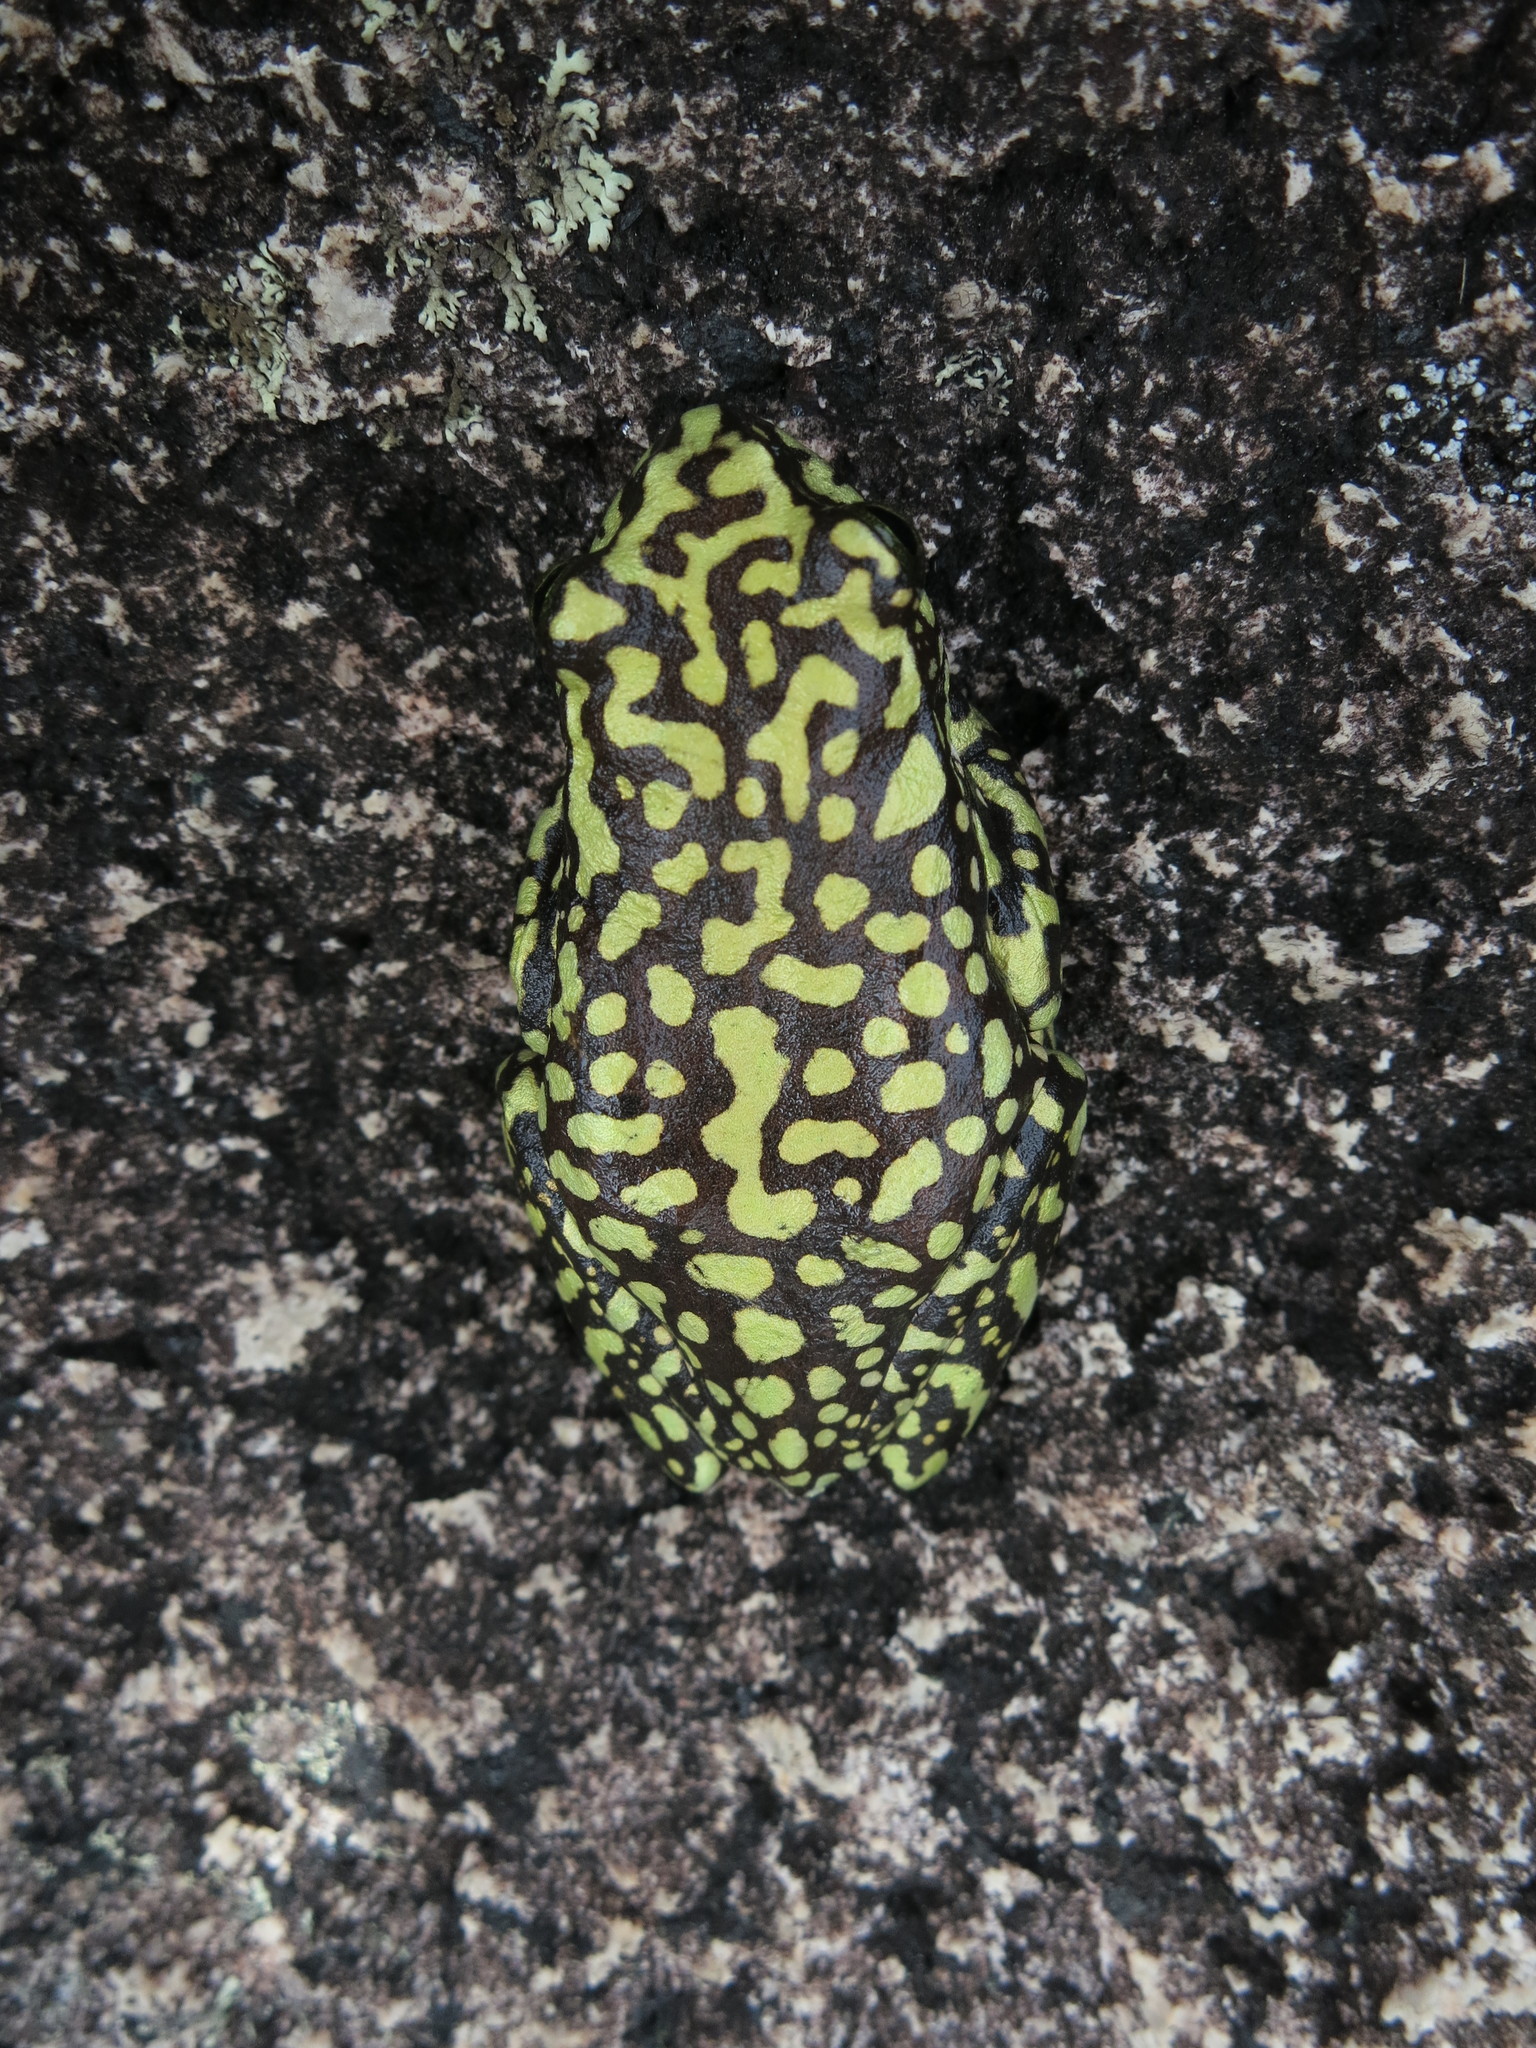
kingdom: Animalia
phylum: Chordata
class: Amphibia
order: Anura
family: Mantellidae
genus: Boophis
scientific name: Boophis laurenti
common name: Andinrgitra bright-eyed frog
